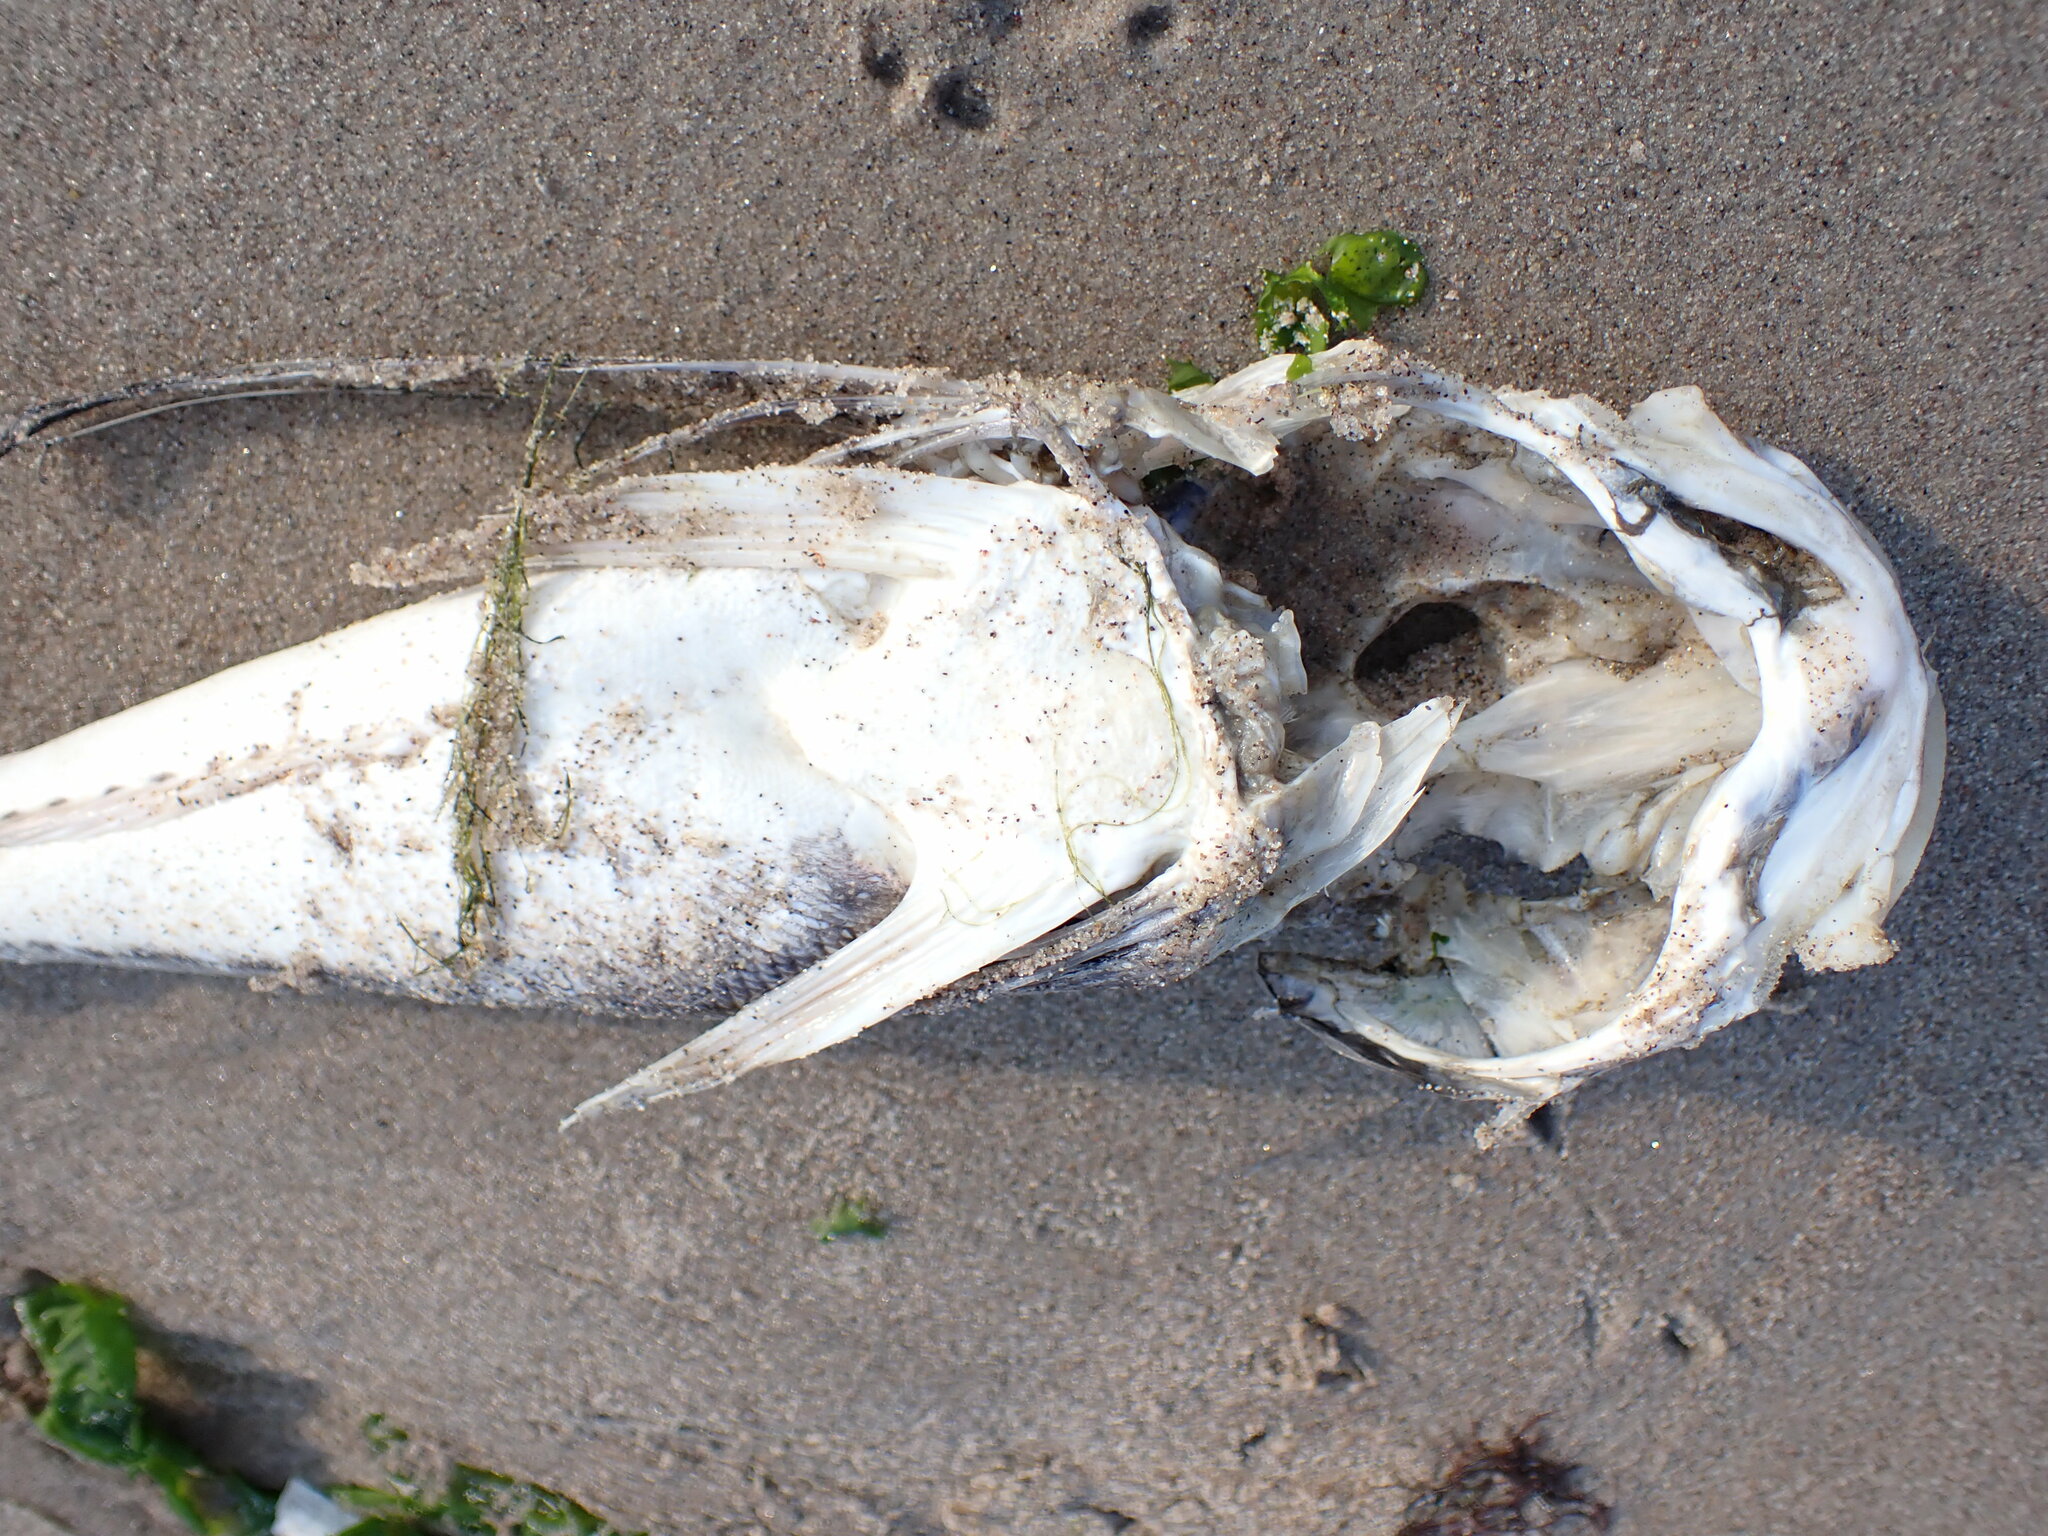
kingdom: Animalia
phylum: Chordata
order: Scorpaeniformes
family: Triglidae
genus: Prionotus
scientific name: Prionotus evolans
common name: Striped searobin
